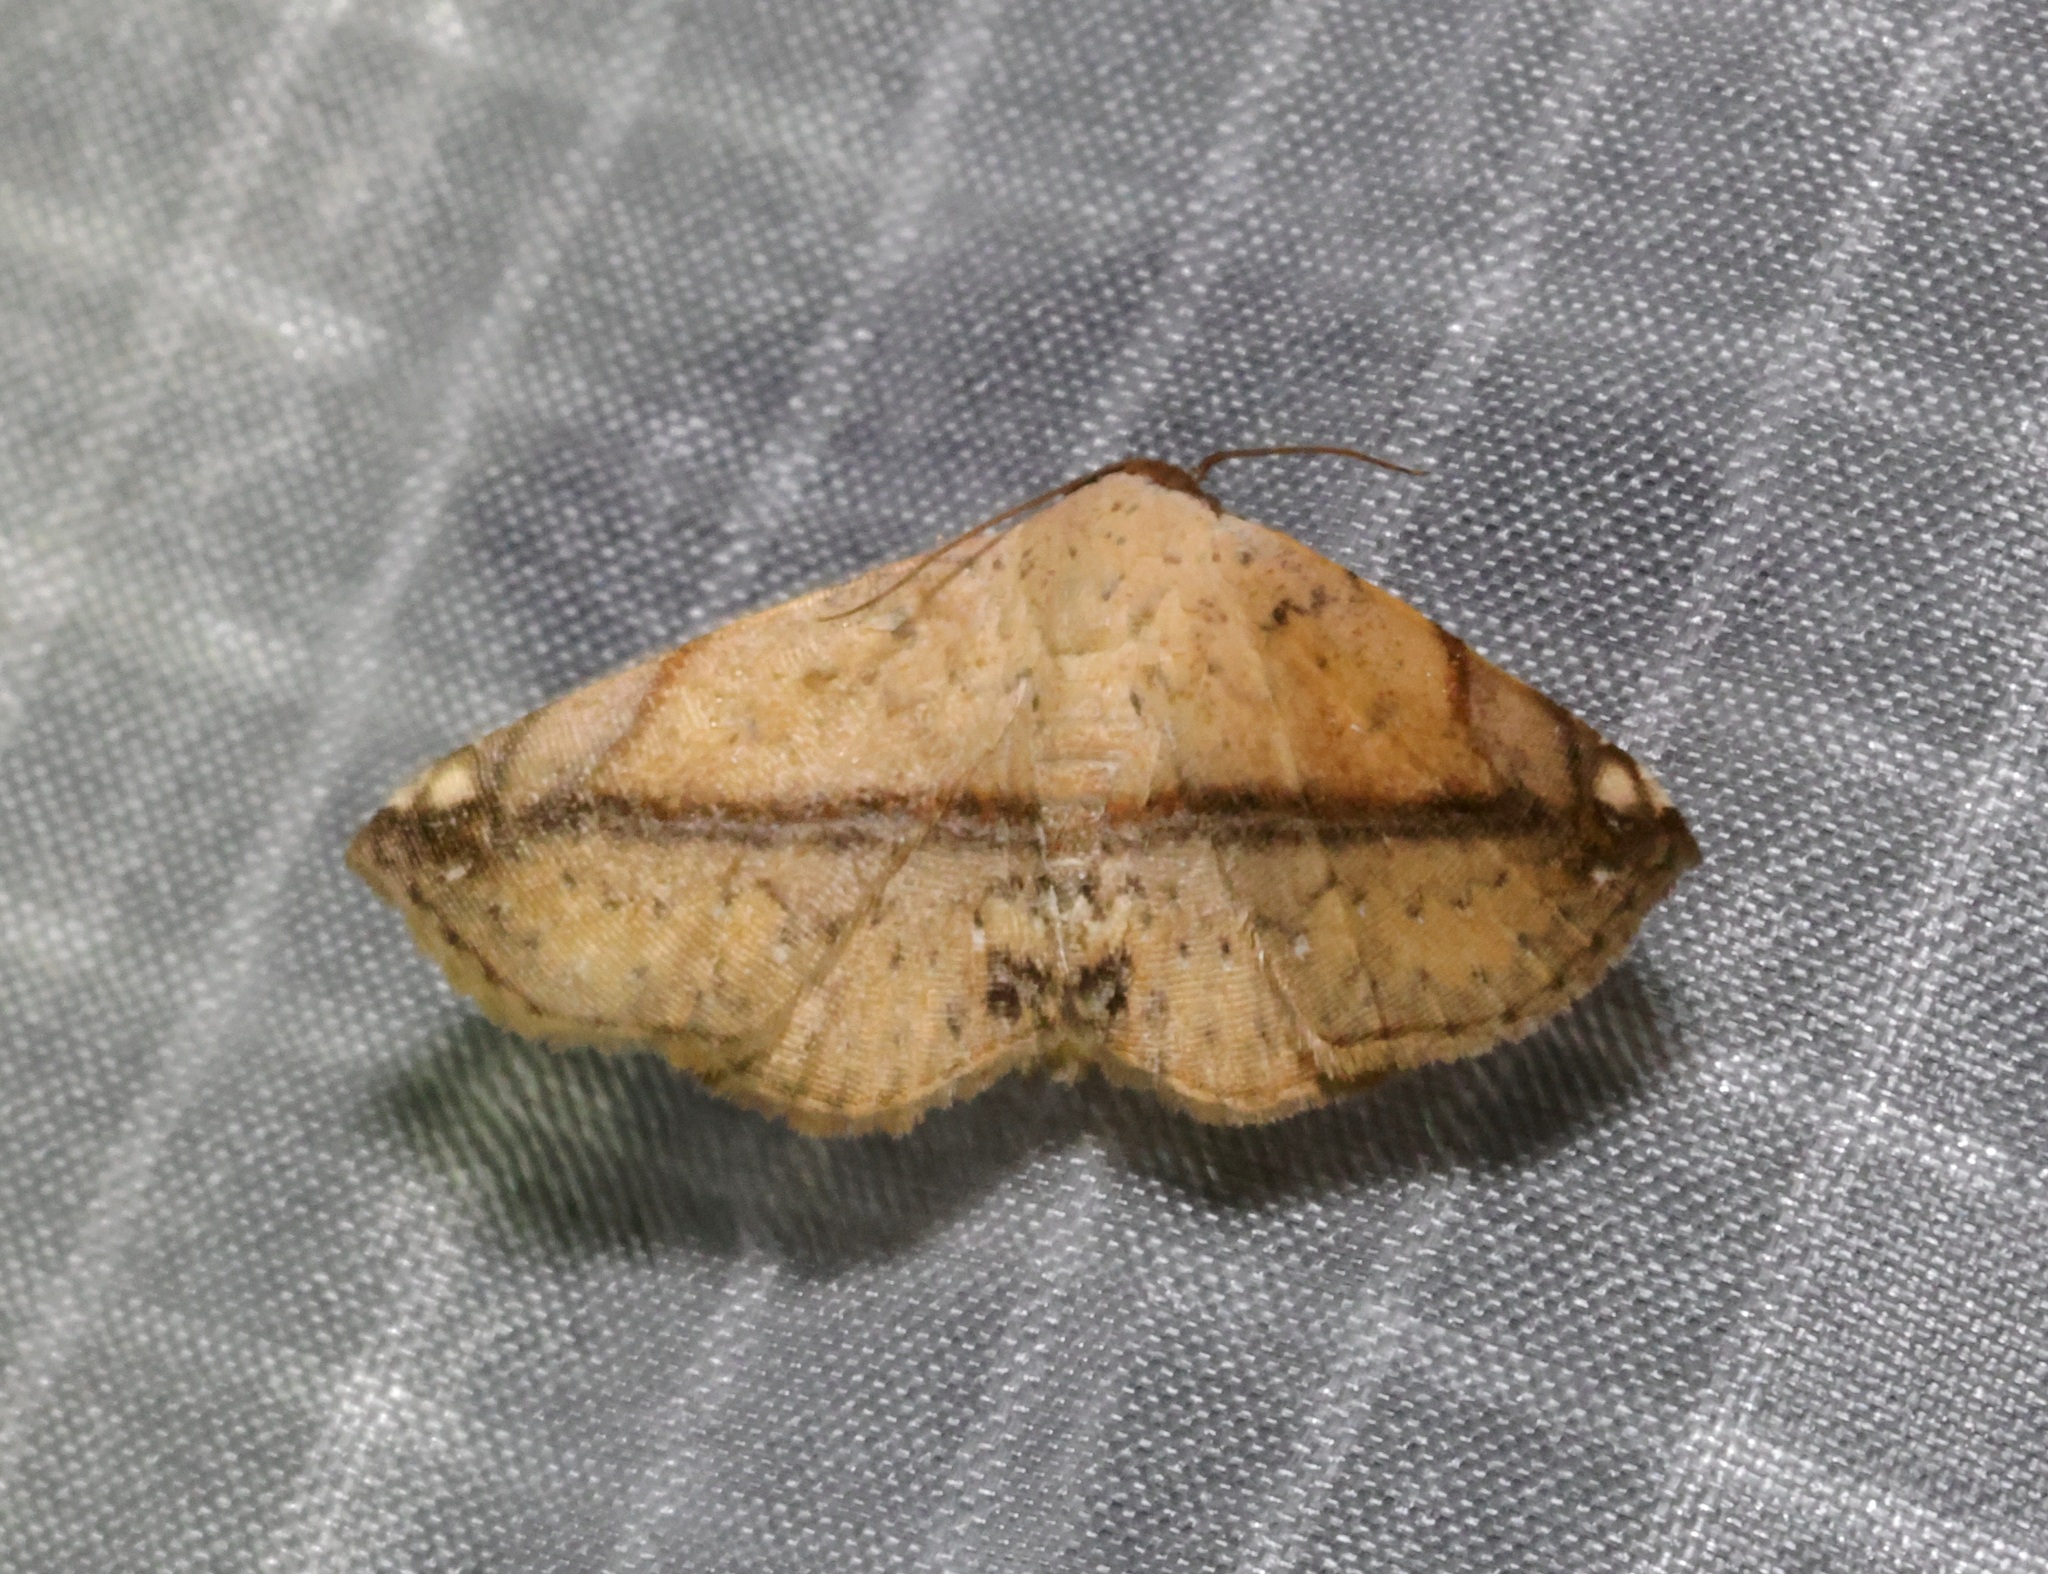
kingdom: Animalia
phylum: Arthropoda
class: Insecta
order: Lepidoptera
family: Noctuidae
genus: Eublemma
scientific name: Eublemma abrupta
